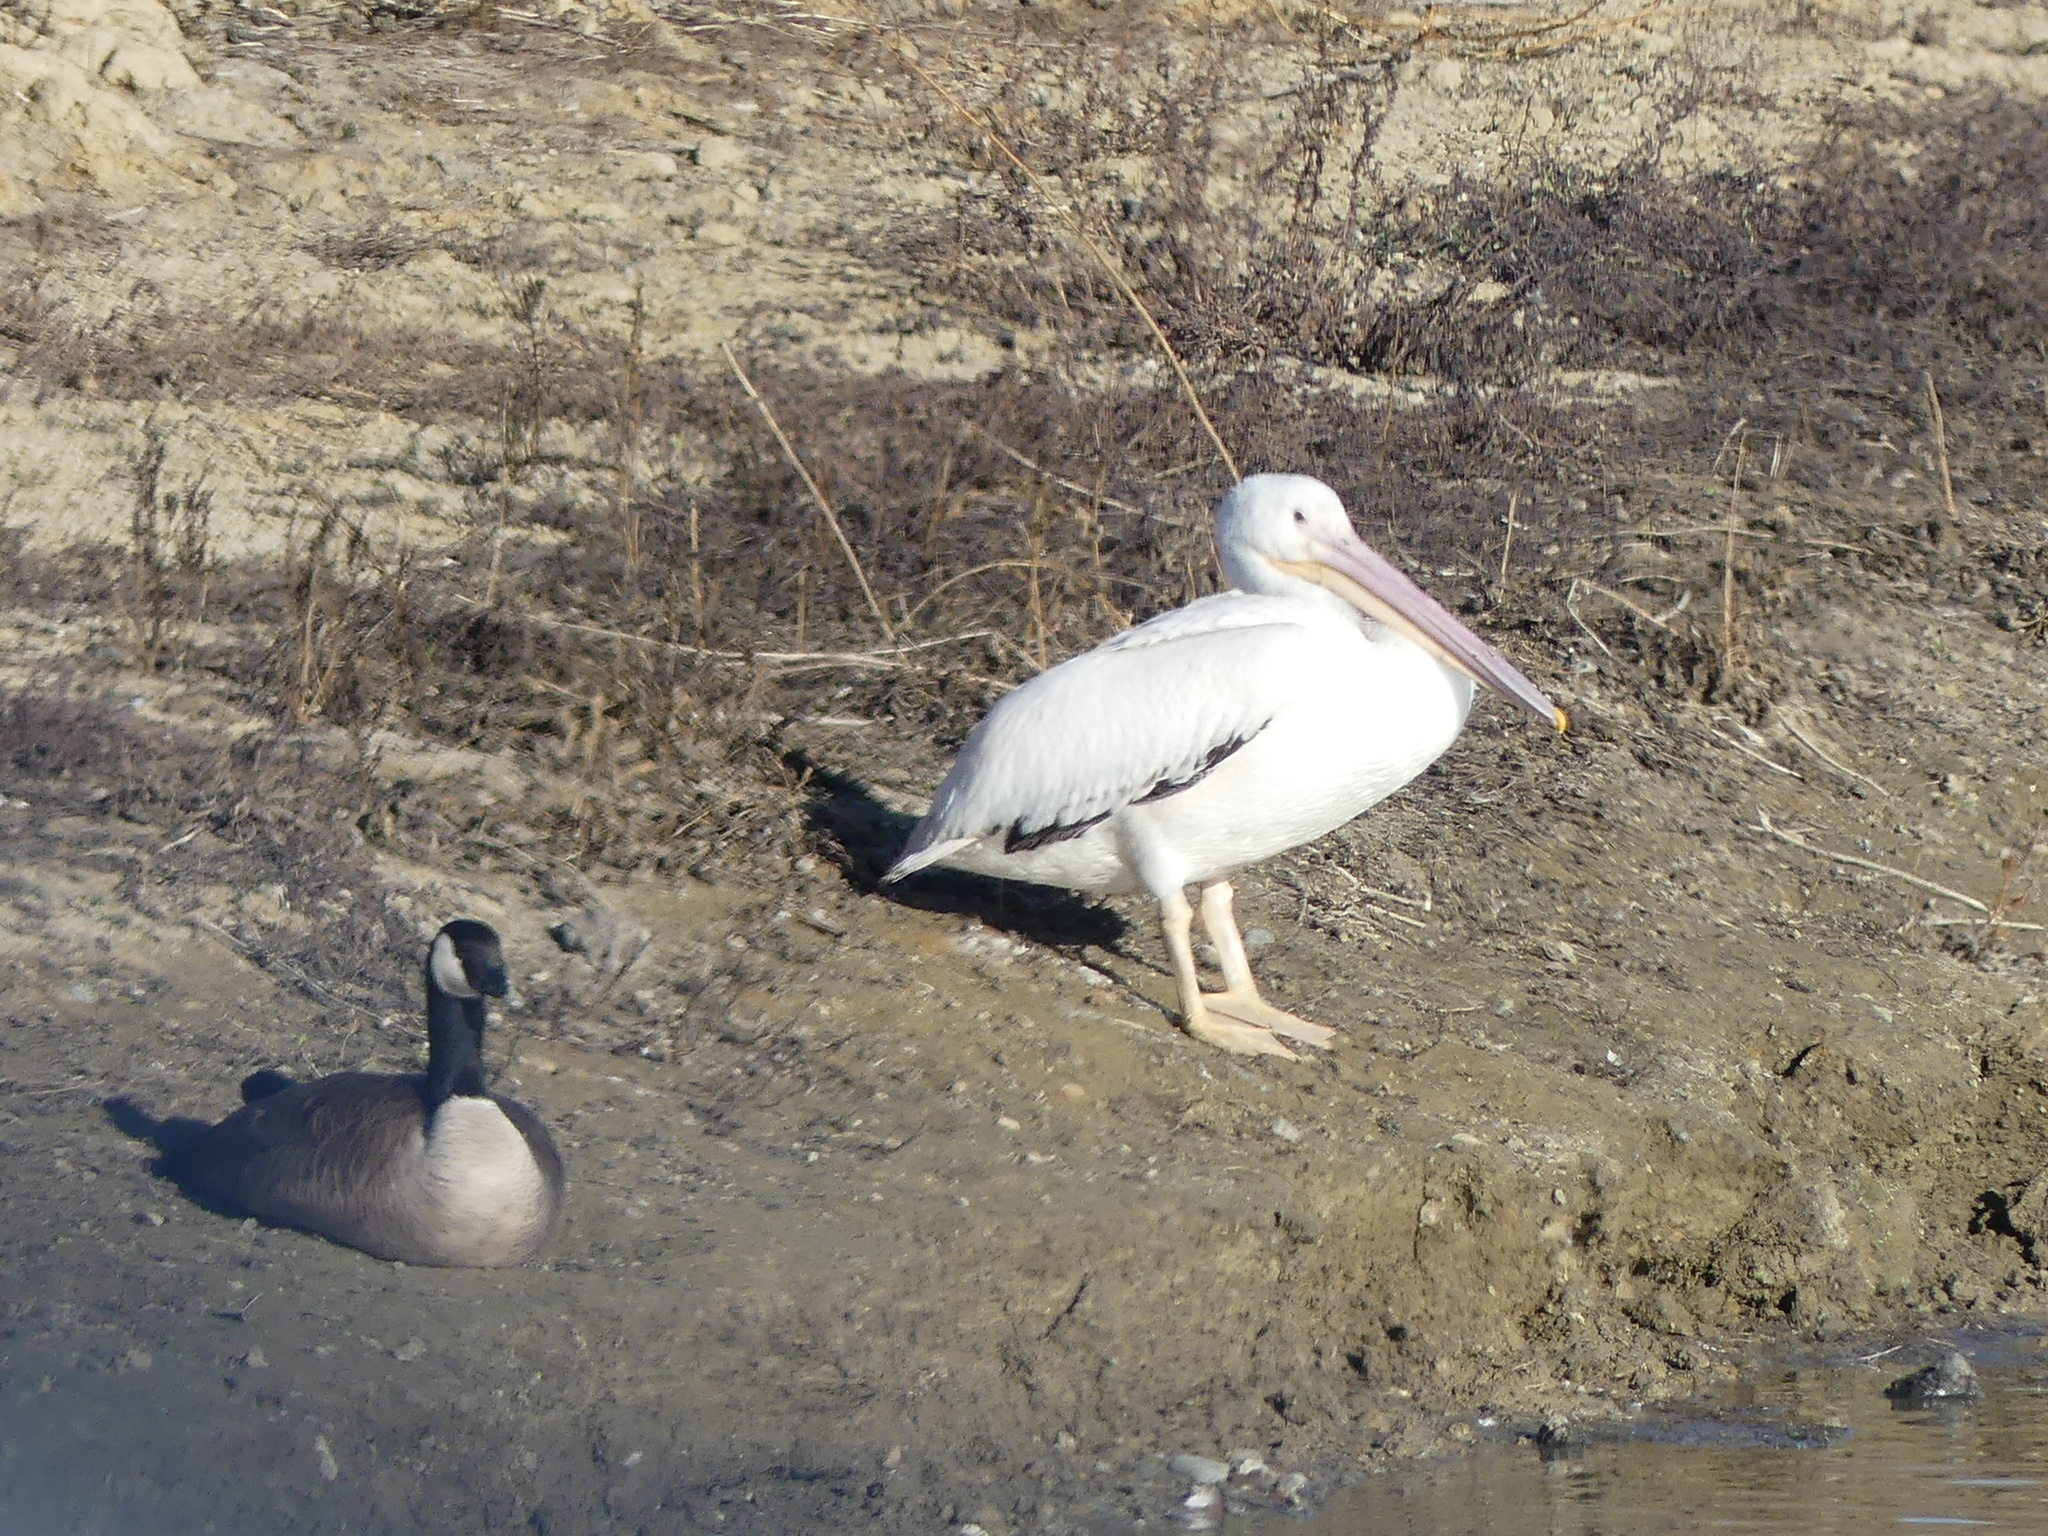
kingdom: Animalia
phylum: Chordata
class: Aves
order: Pelecaniformes
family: Pelecanidae
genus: Pelecanus
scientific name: Pelecanus erythrorhynchos
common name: American white pelican
